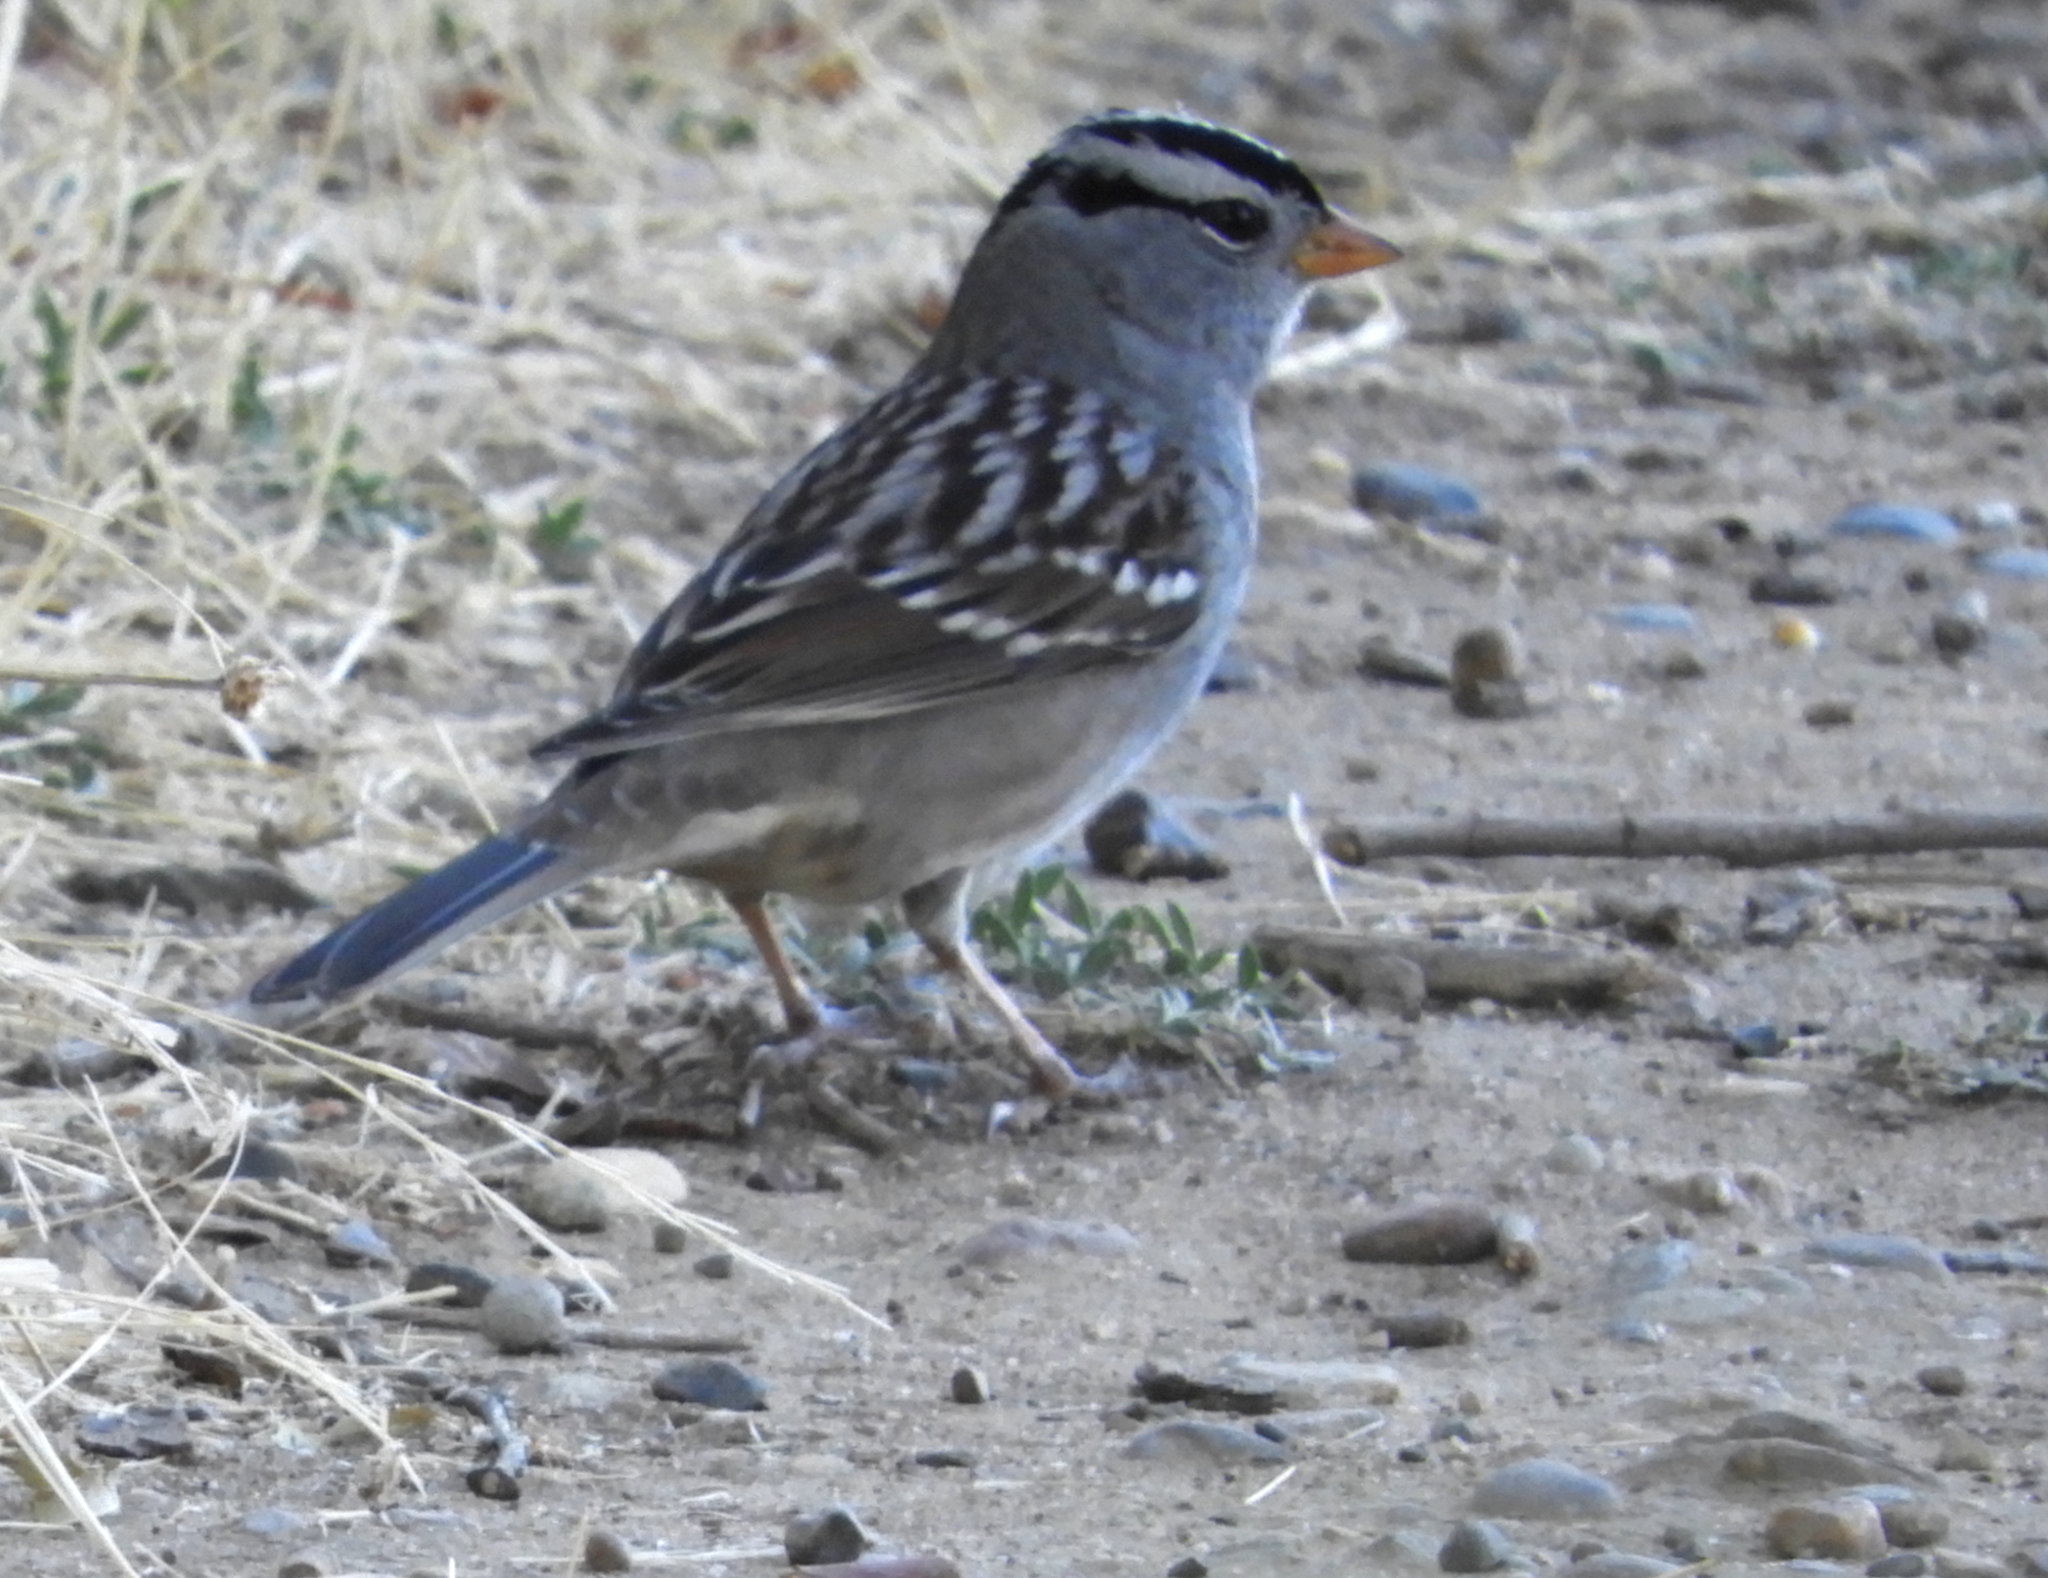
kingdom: Animalia
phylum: Chordata
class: Aves
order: Passeriformes
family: Passerellidae
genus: Zonotrichia
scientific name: Zonotrichia leucophrys
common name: White-crowned sparrow
